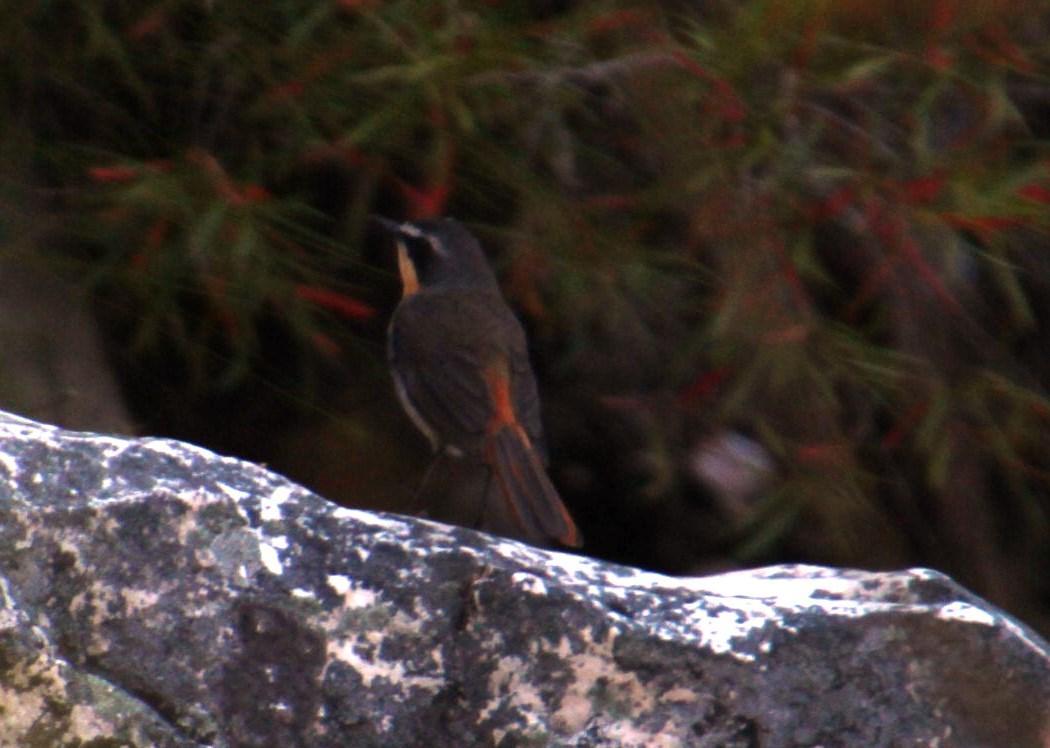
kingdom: Animalia
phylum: Chordata
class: Aves
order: Passeriformes
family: Muscicapidae
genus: Cossypha
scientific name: Cossypha caffra
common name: Cape robin-chat
